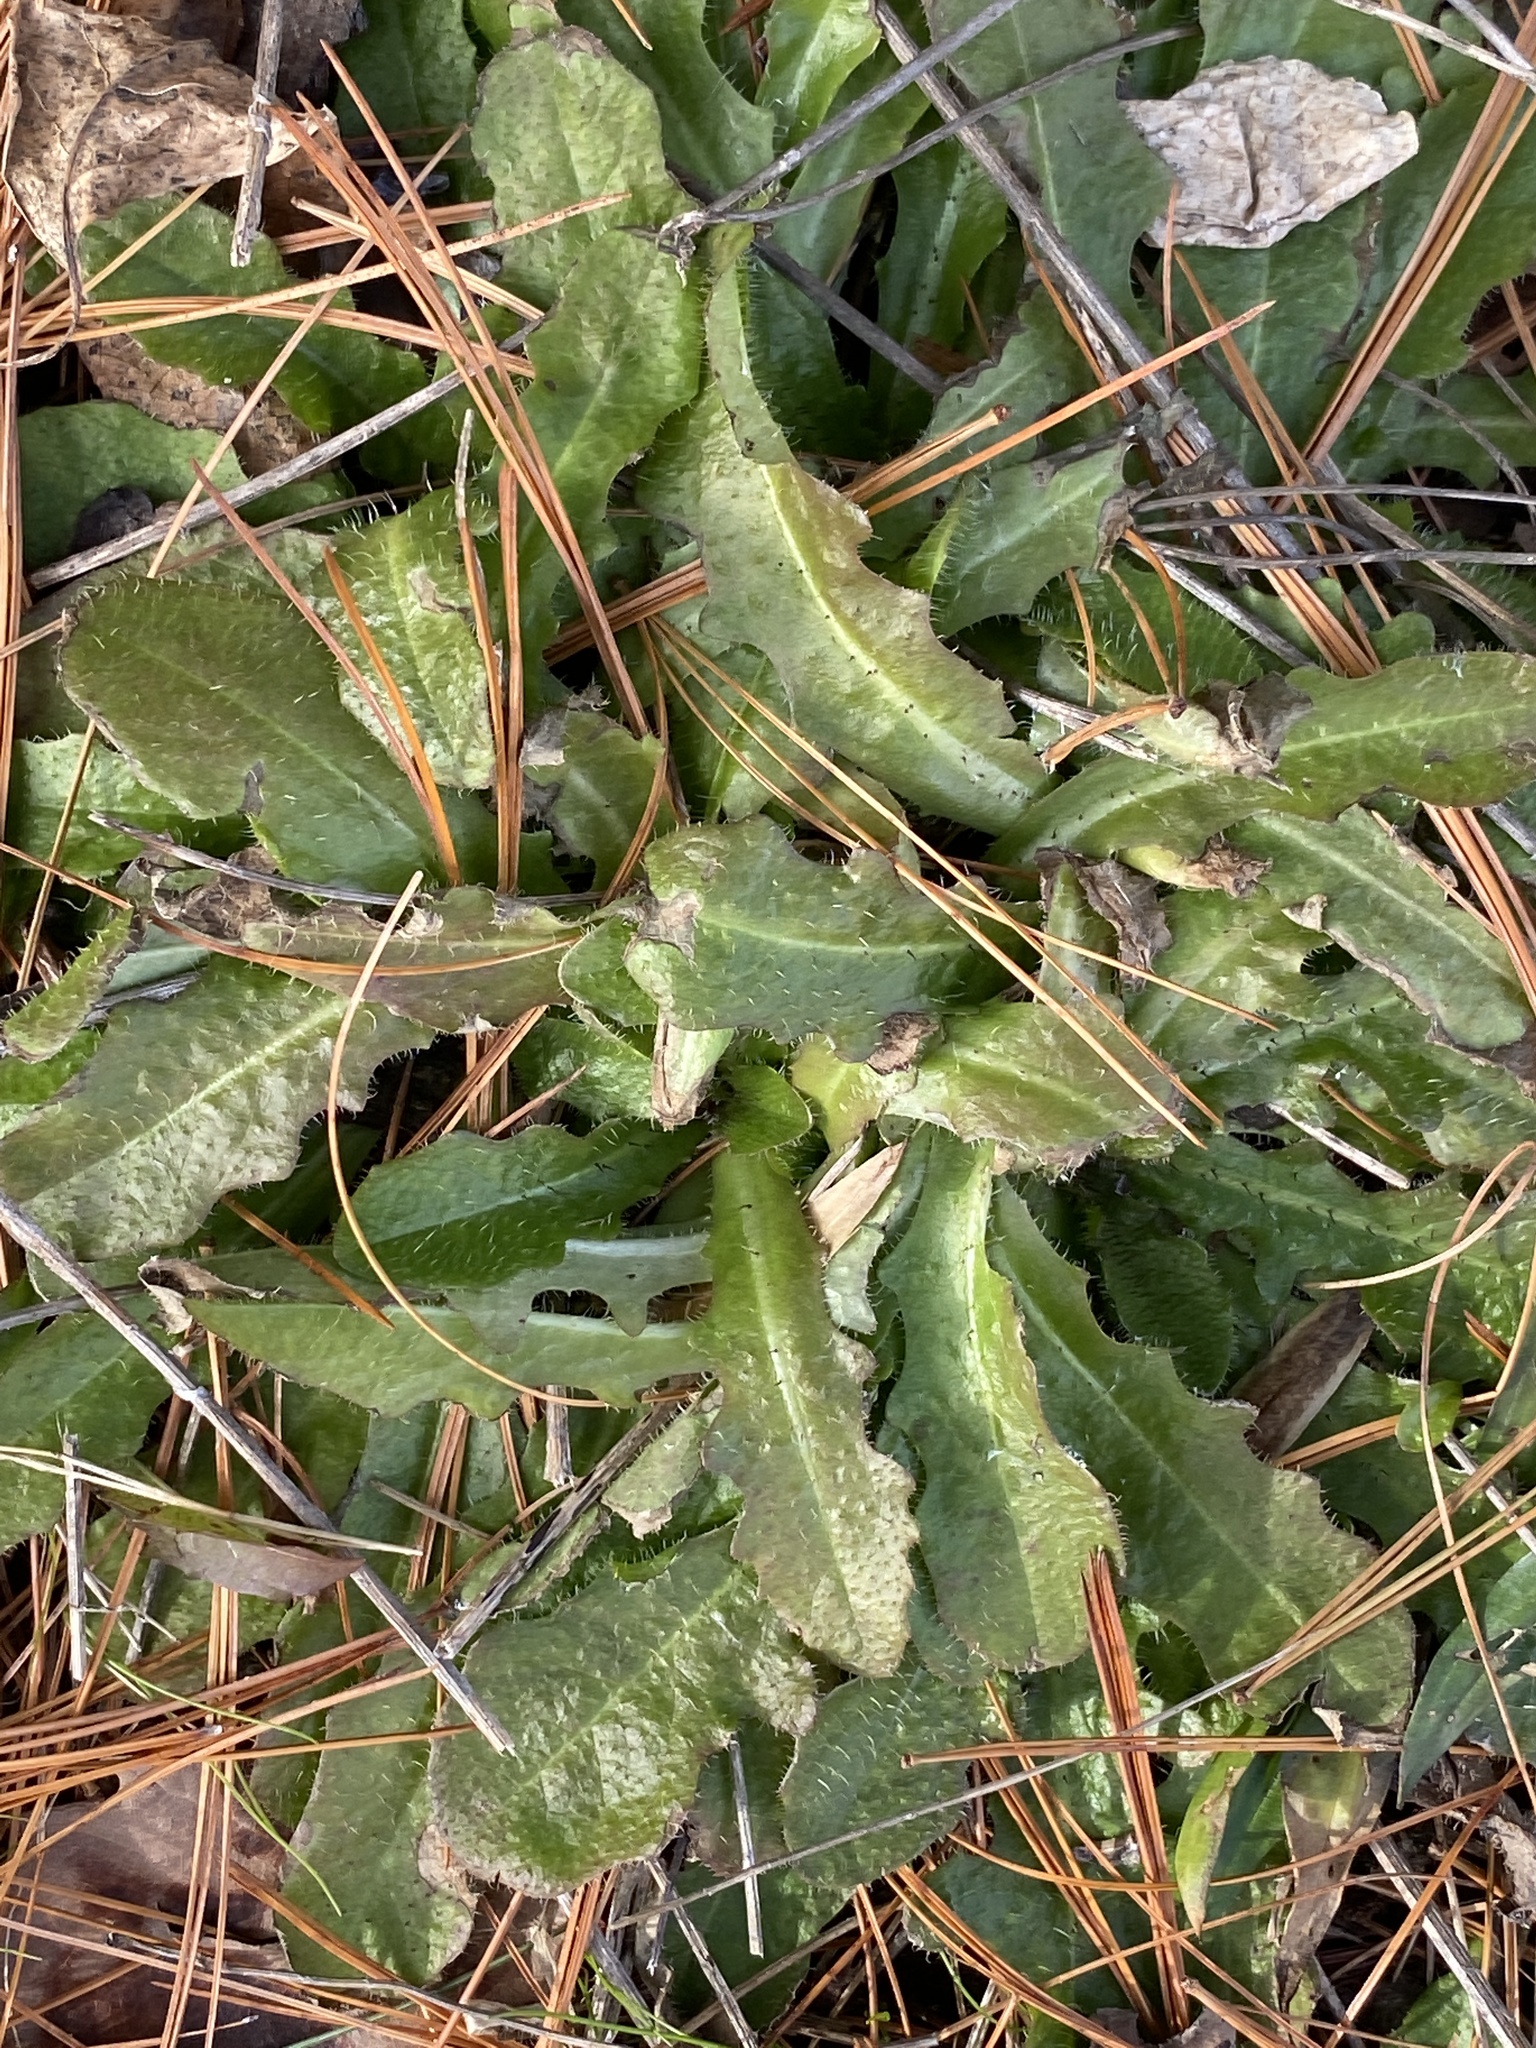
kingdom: Plantae
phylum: Tracheophyta
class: Magnoliopsida
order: Asterales
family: Asteraceae
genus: Hypochaeris
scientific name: Hypochaeris radicata
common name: Flatweed
